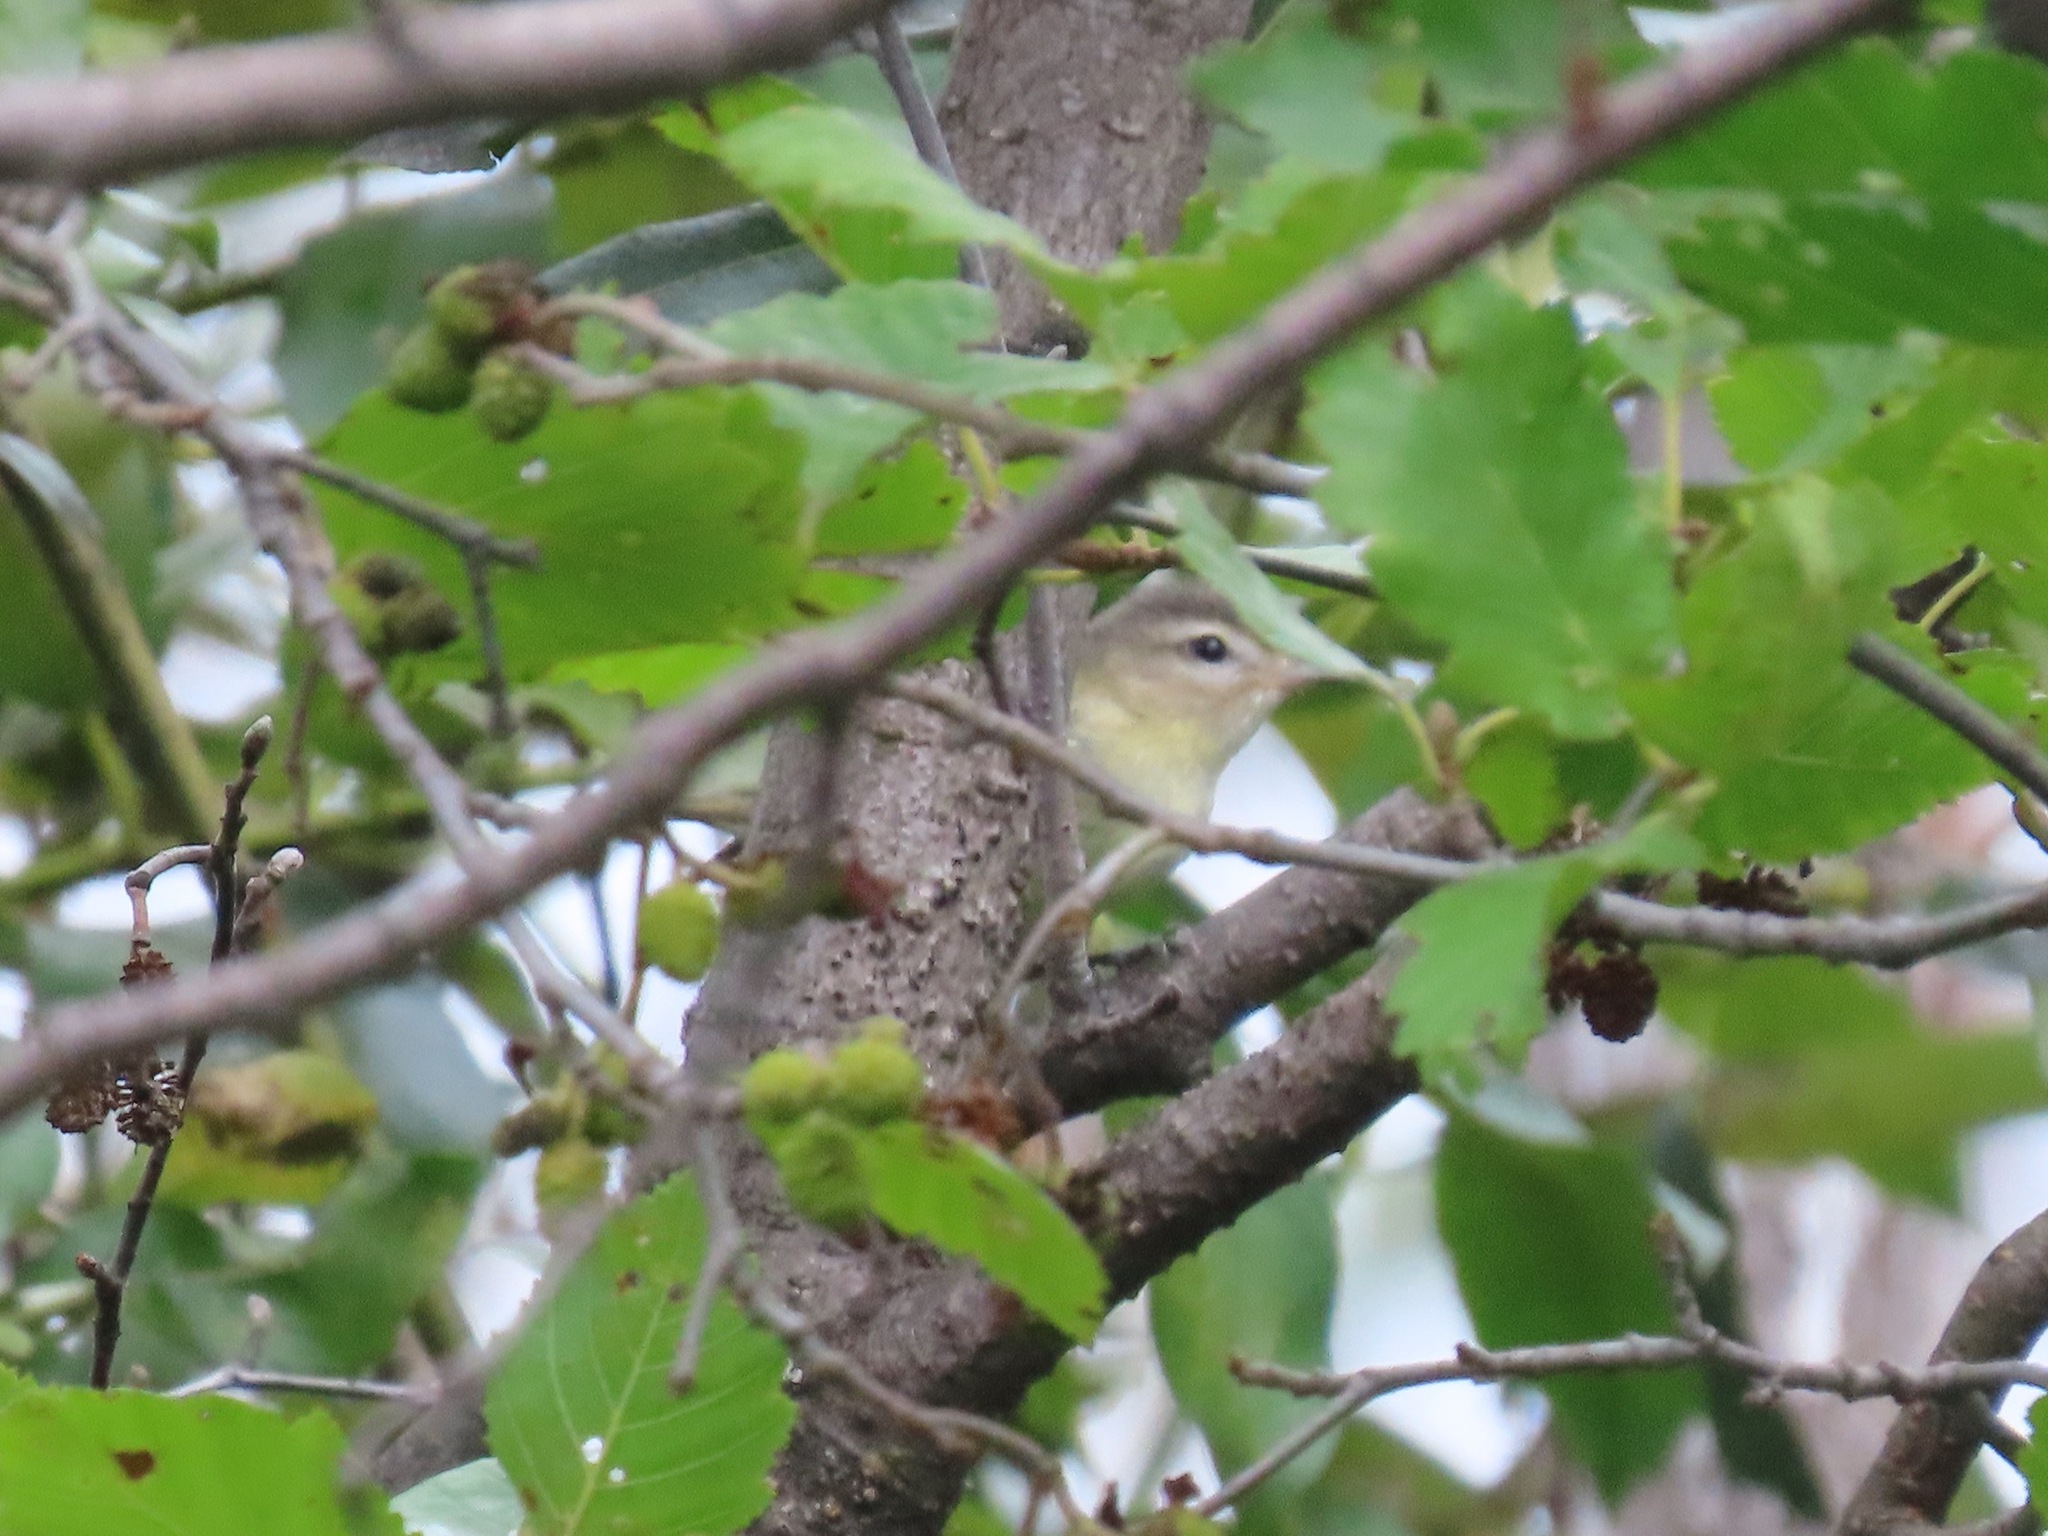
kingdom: Animalia
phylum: Chordata
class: Aves
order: Passeriformes
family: Vireonidae
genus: Vireo
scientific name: Vireo gilvus
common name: Warbling vireo
